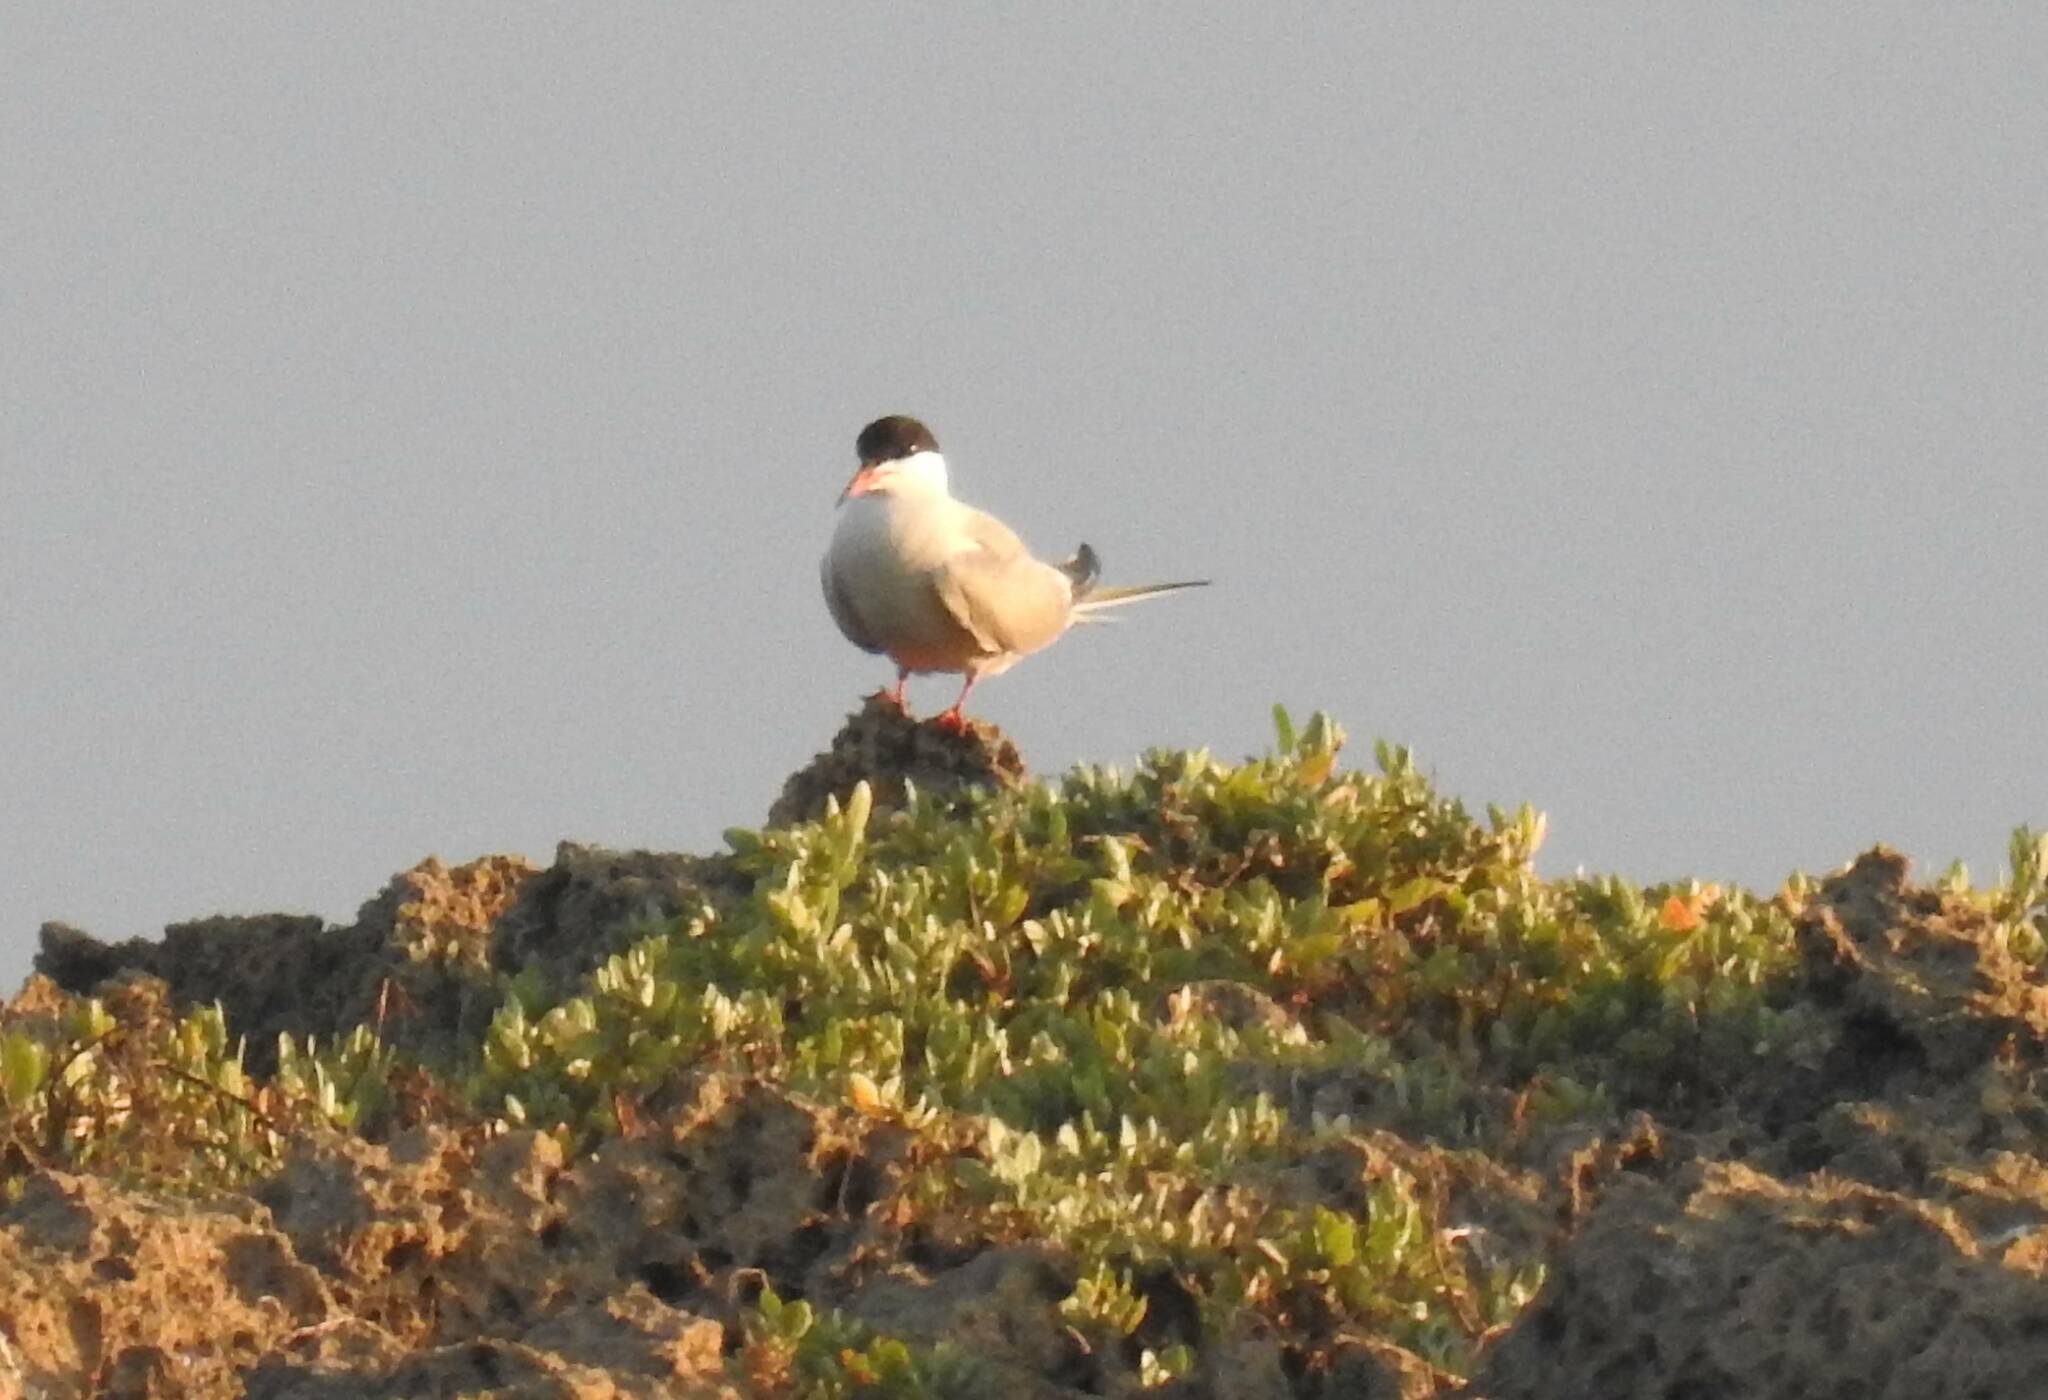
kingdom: Animalia
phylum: Chordata
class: Aves
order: Charadriiformes
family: Laridae
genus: Sterna
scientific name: Sterna hirundo
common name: Common tern
